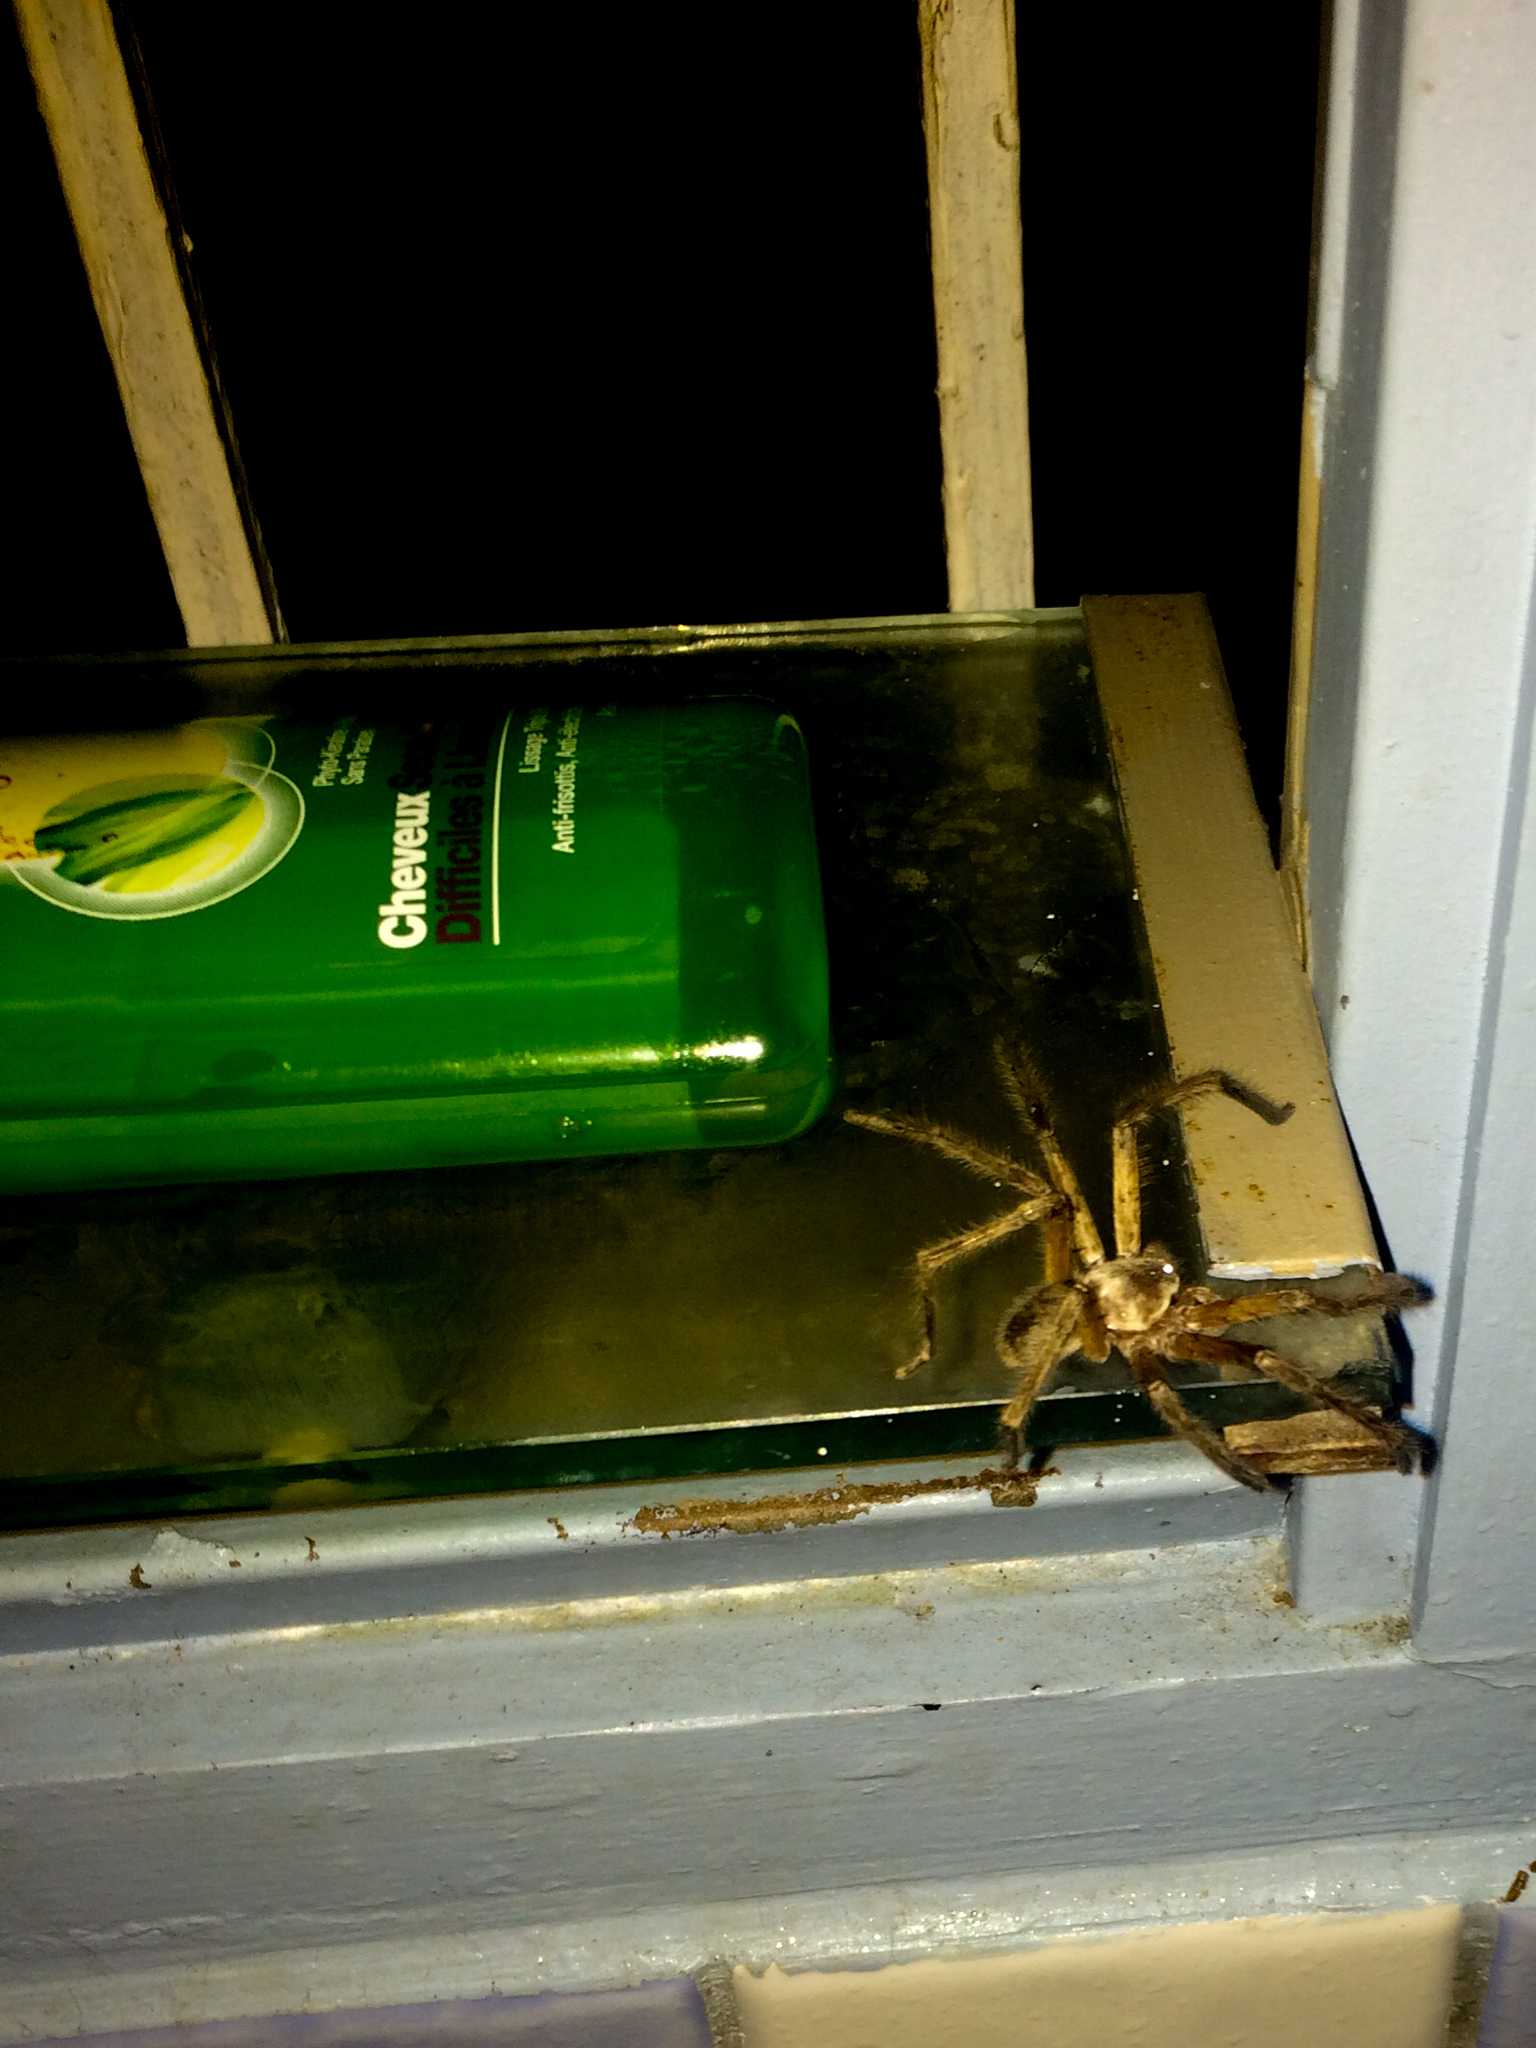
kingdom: Animalia
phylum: Arthropoda
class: Arachnida
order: Araneae
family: Sparassidae
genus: Heteropoda
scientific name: Heteropoda venatoria
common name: Huntsman spider
